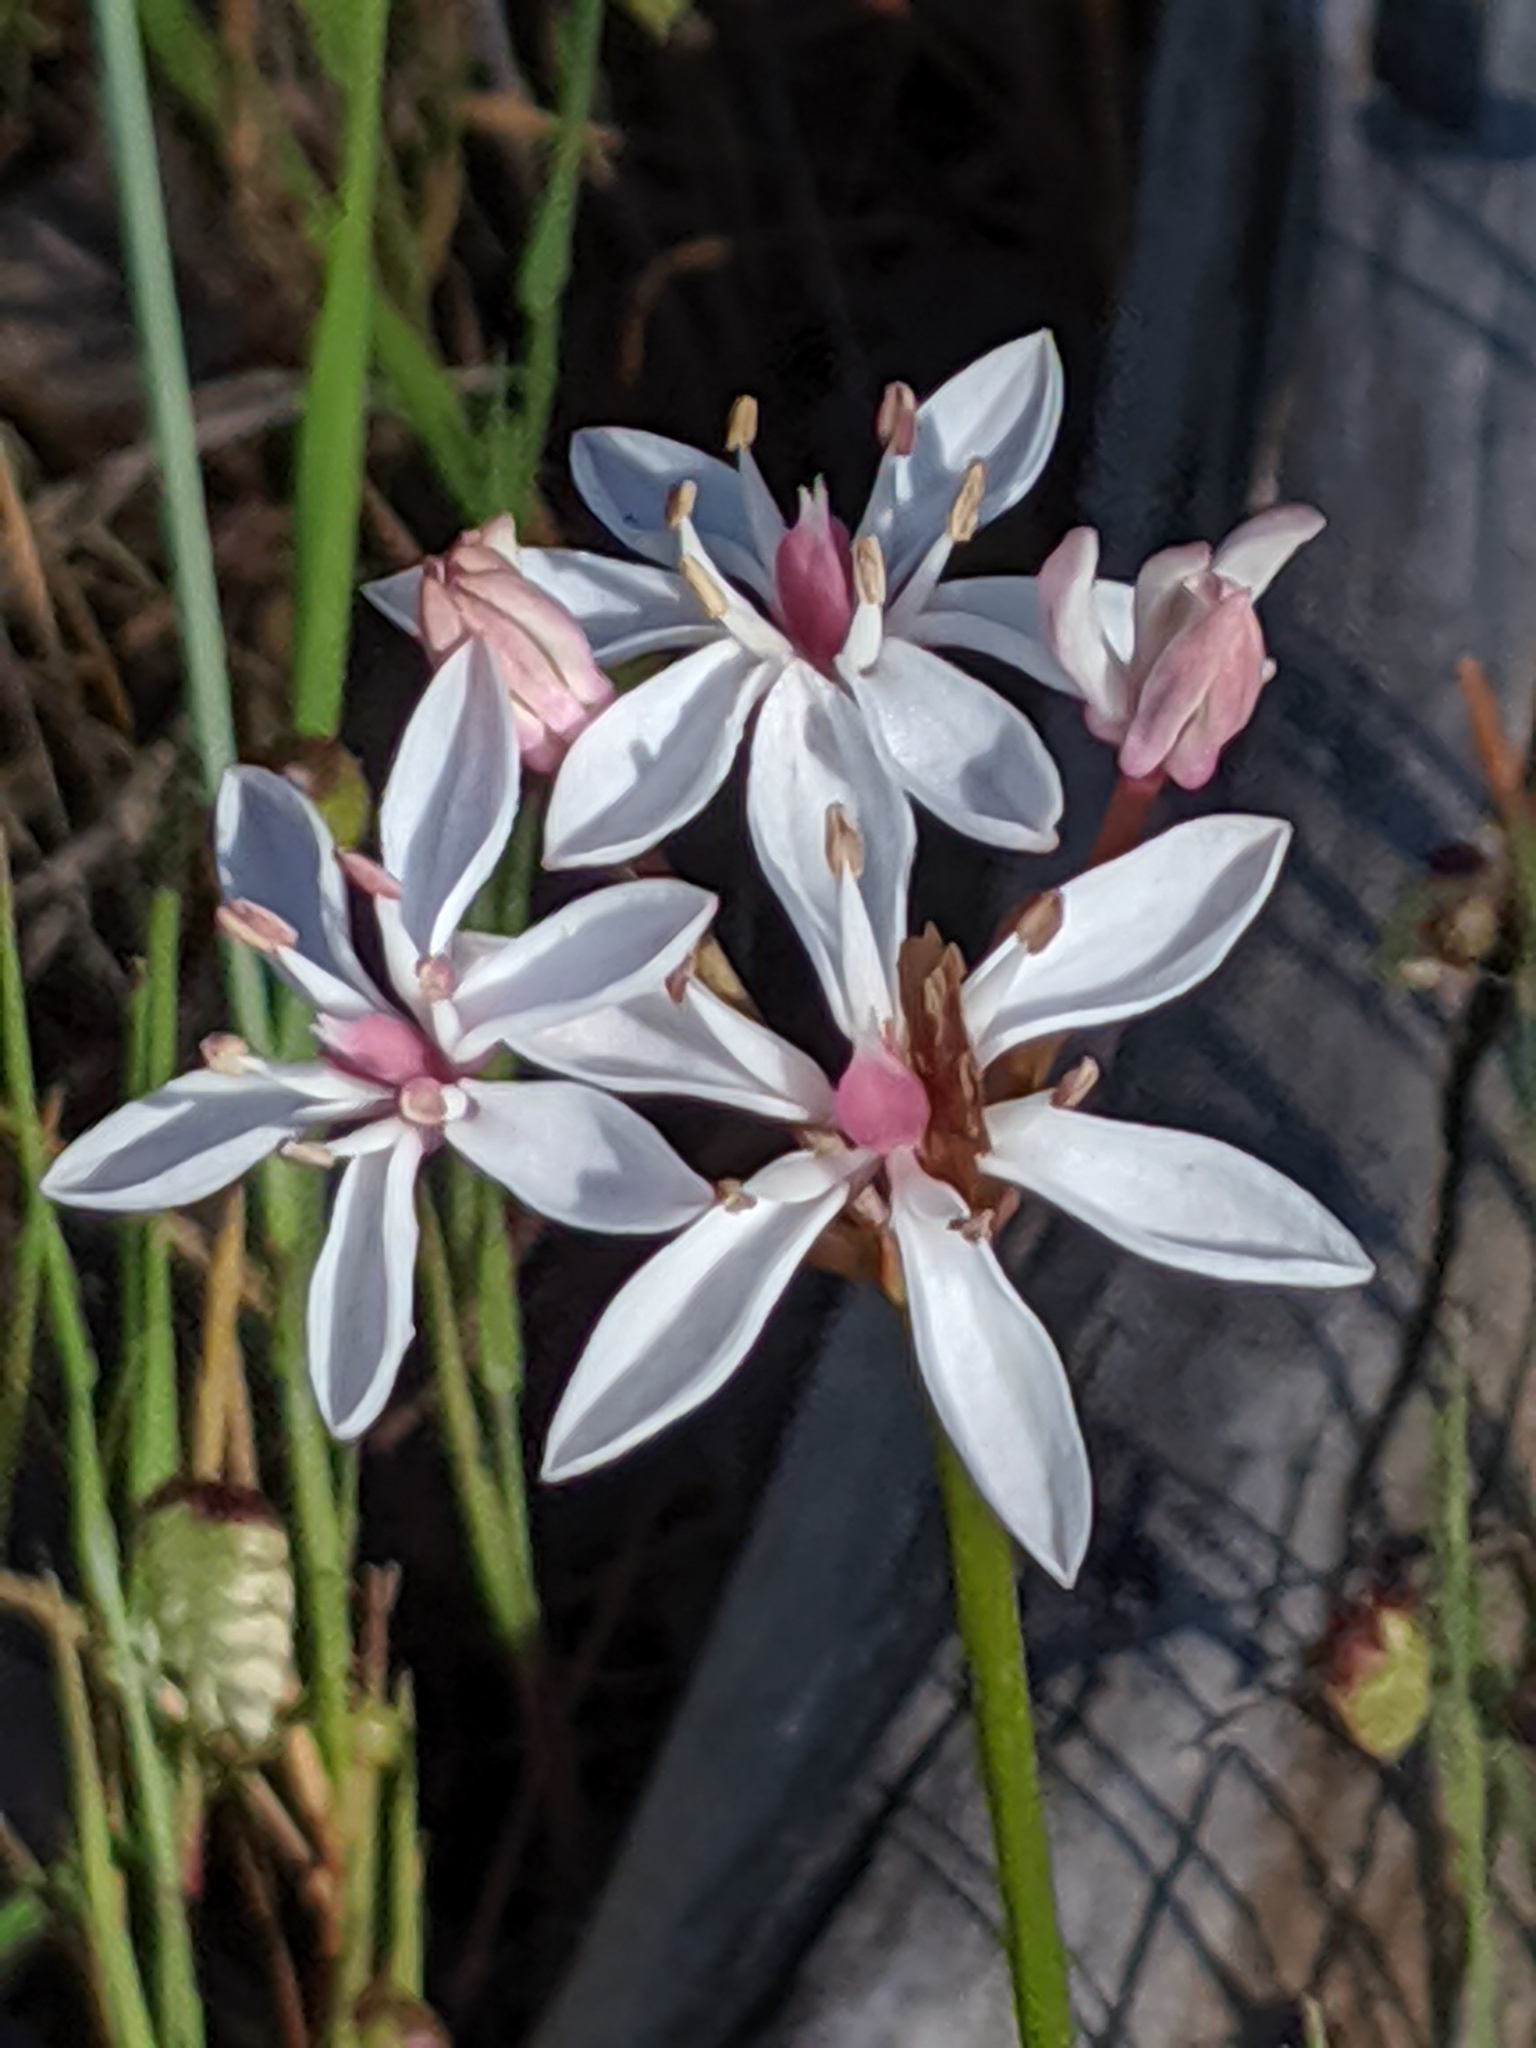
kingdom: Plantae
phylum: Tracheophyta
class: Liliopsida
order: Liliales
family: Colchicaceae
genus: Burchardia
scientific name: Burchardia umbellata
